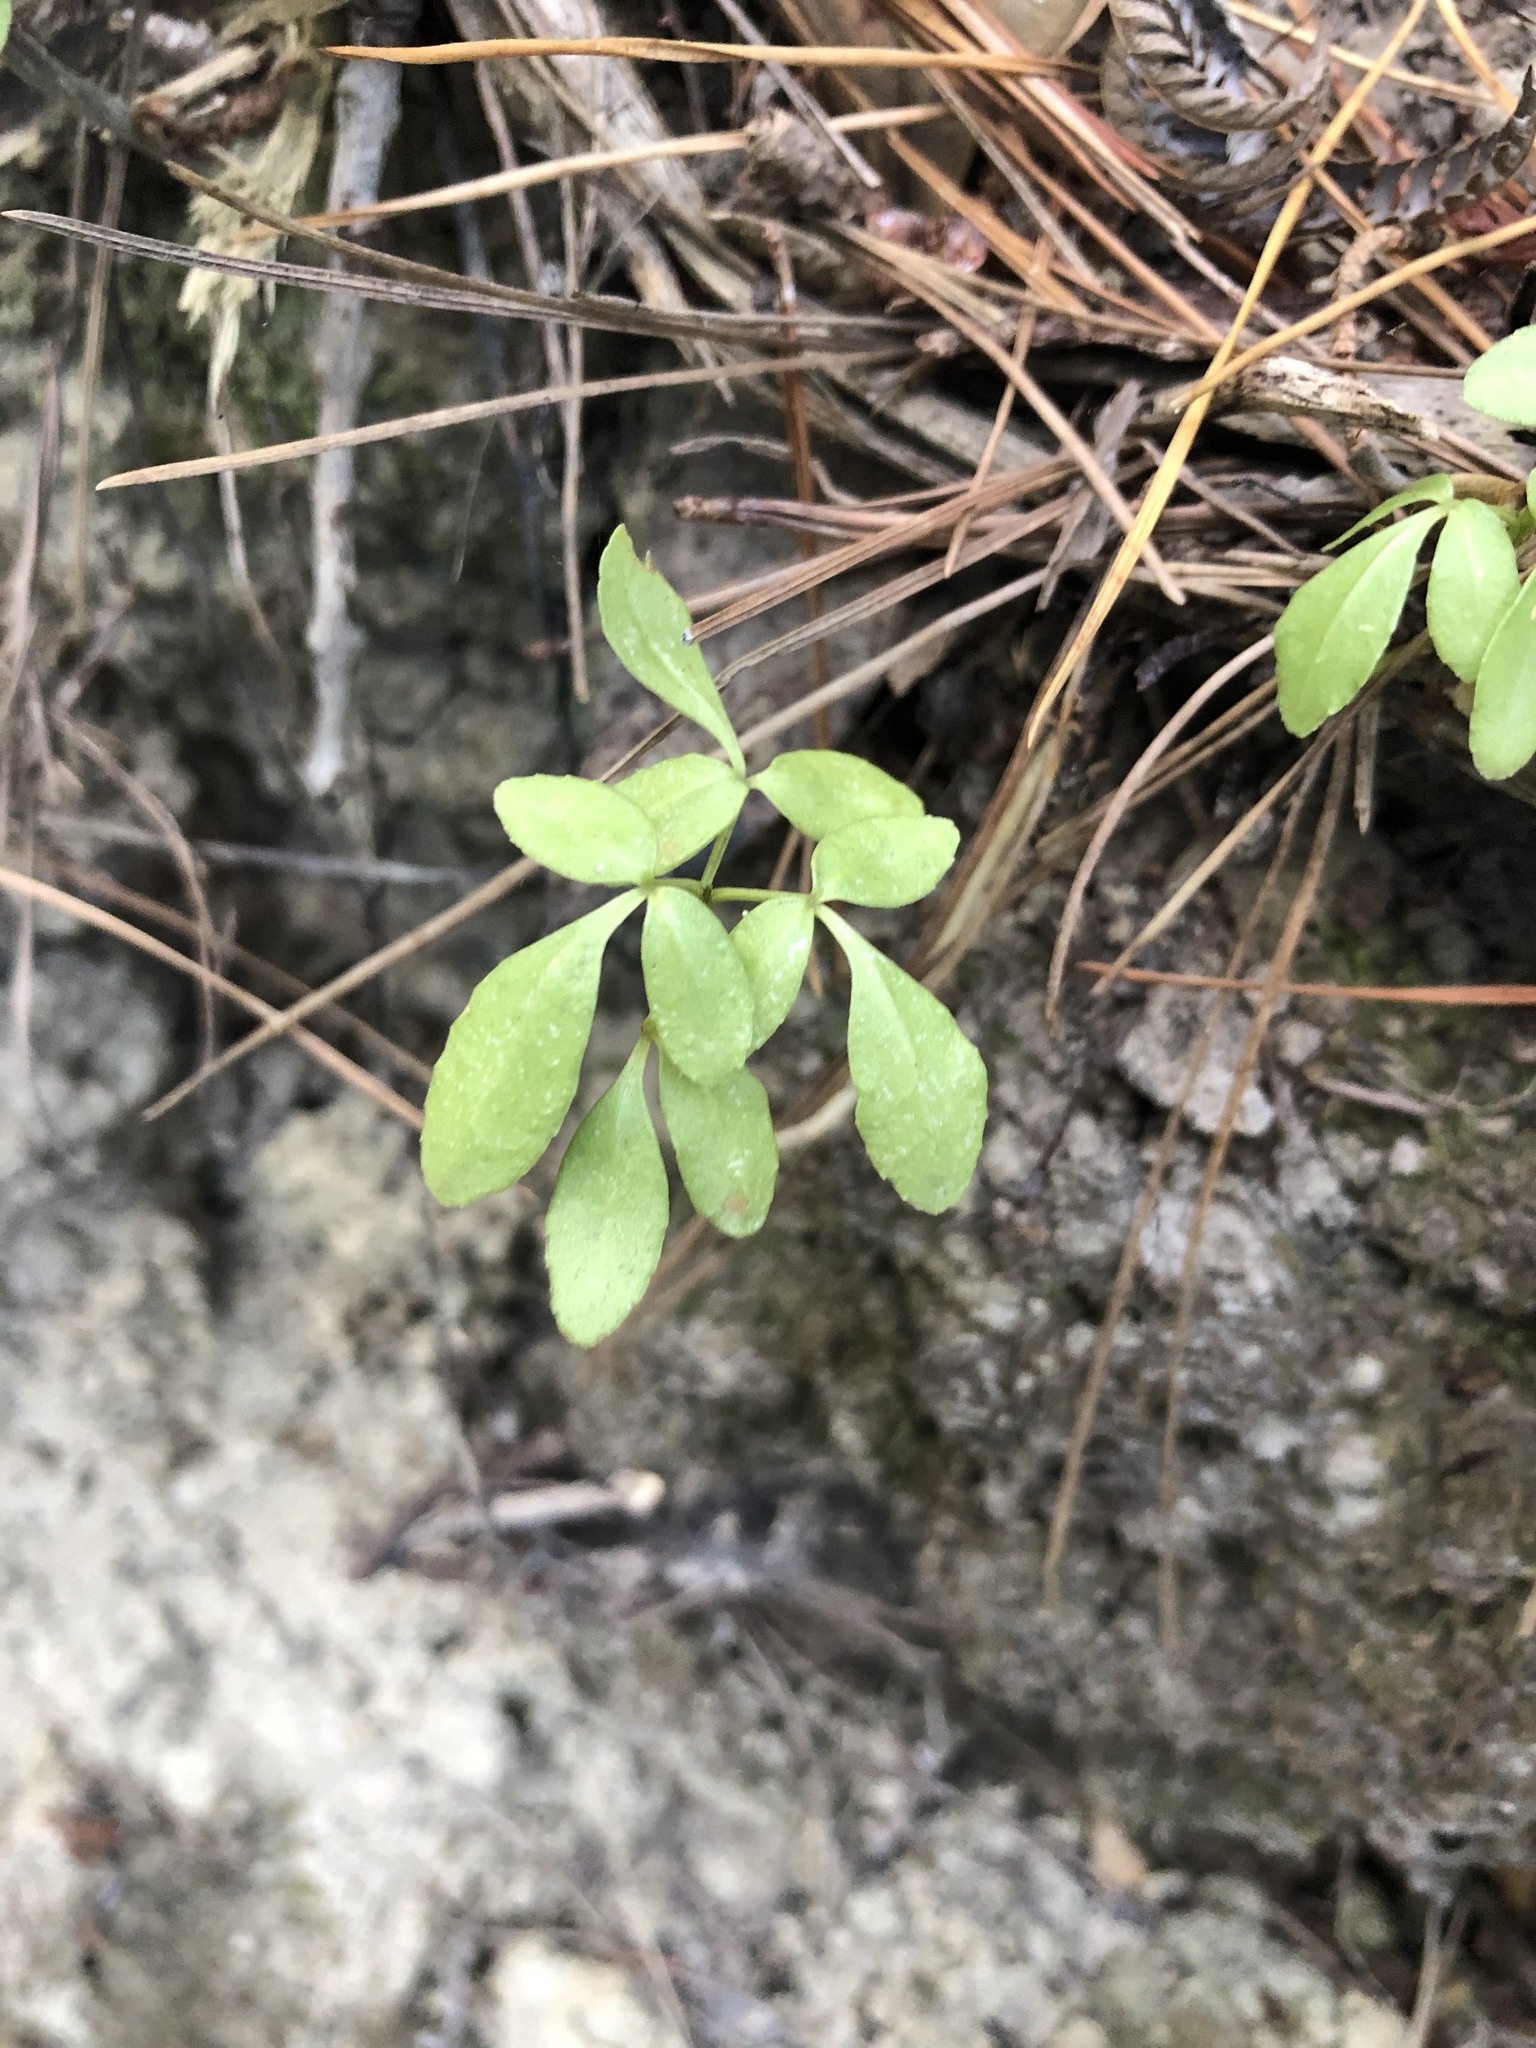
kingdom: Plantae
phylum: Tracheophyta
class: Magnoliopsida
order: Apiales
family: Araliaceae
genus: Pseudopanax
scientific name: Pseudopanax lessonii
